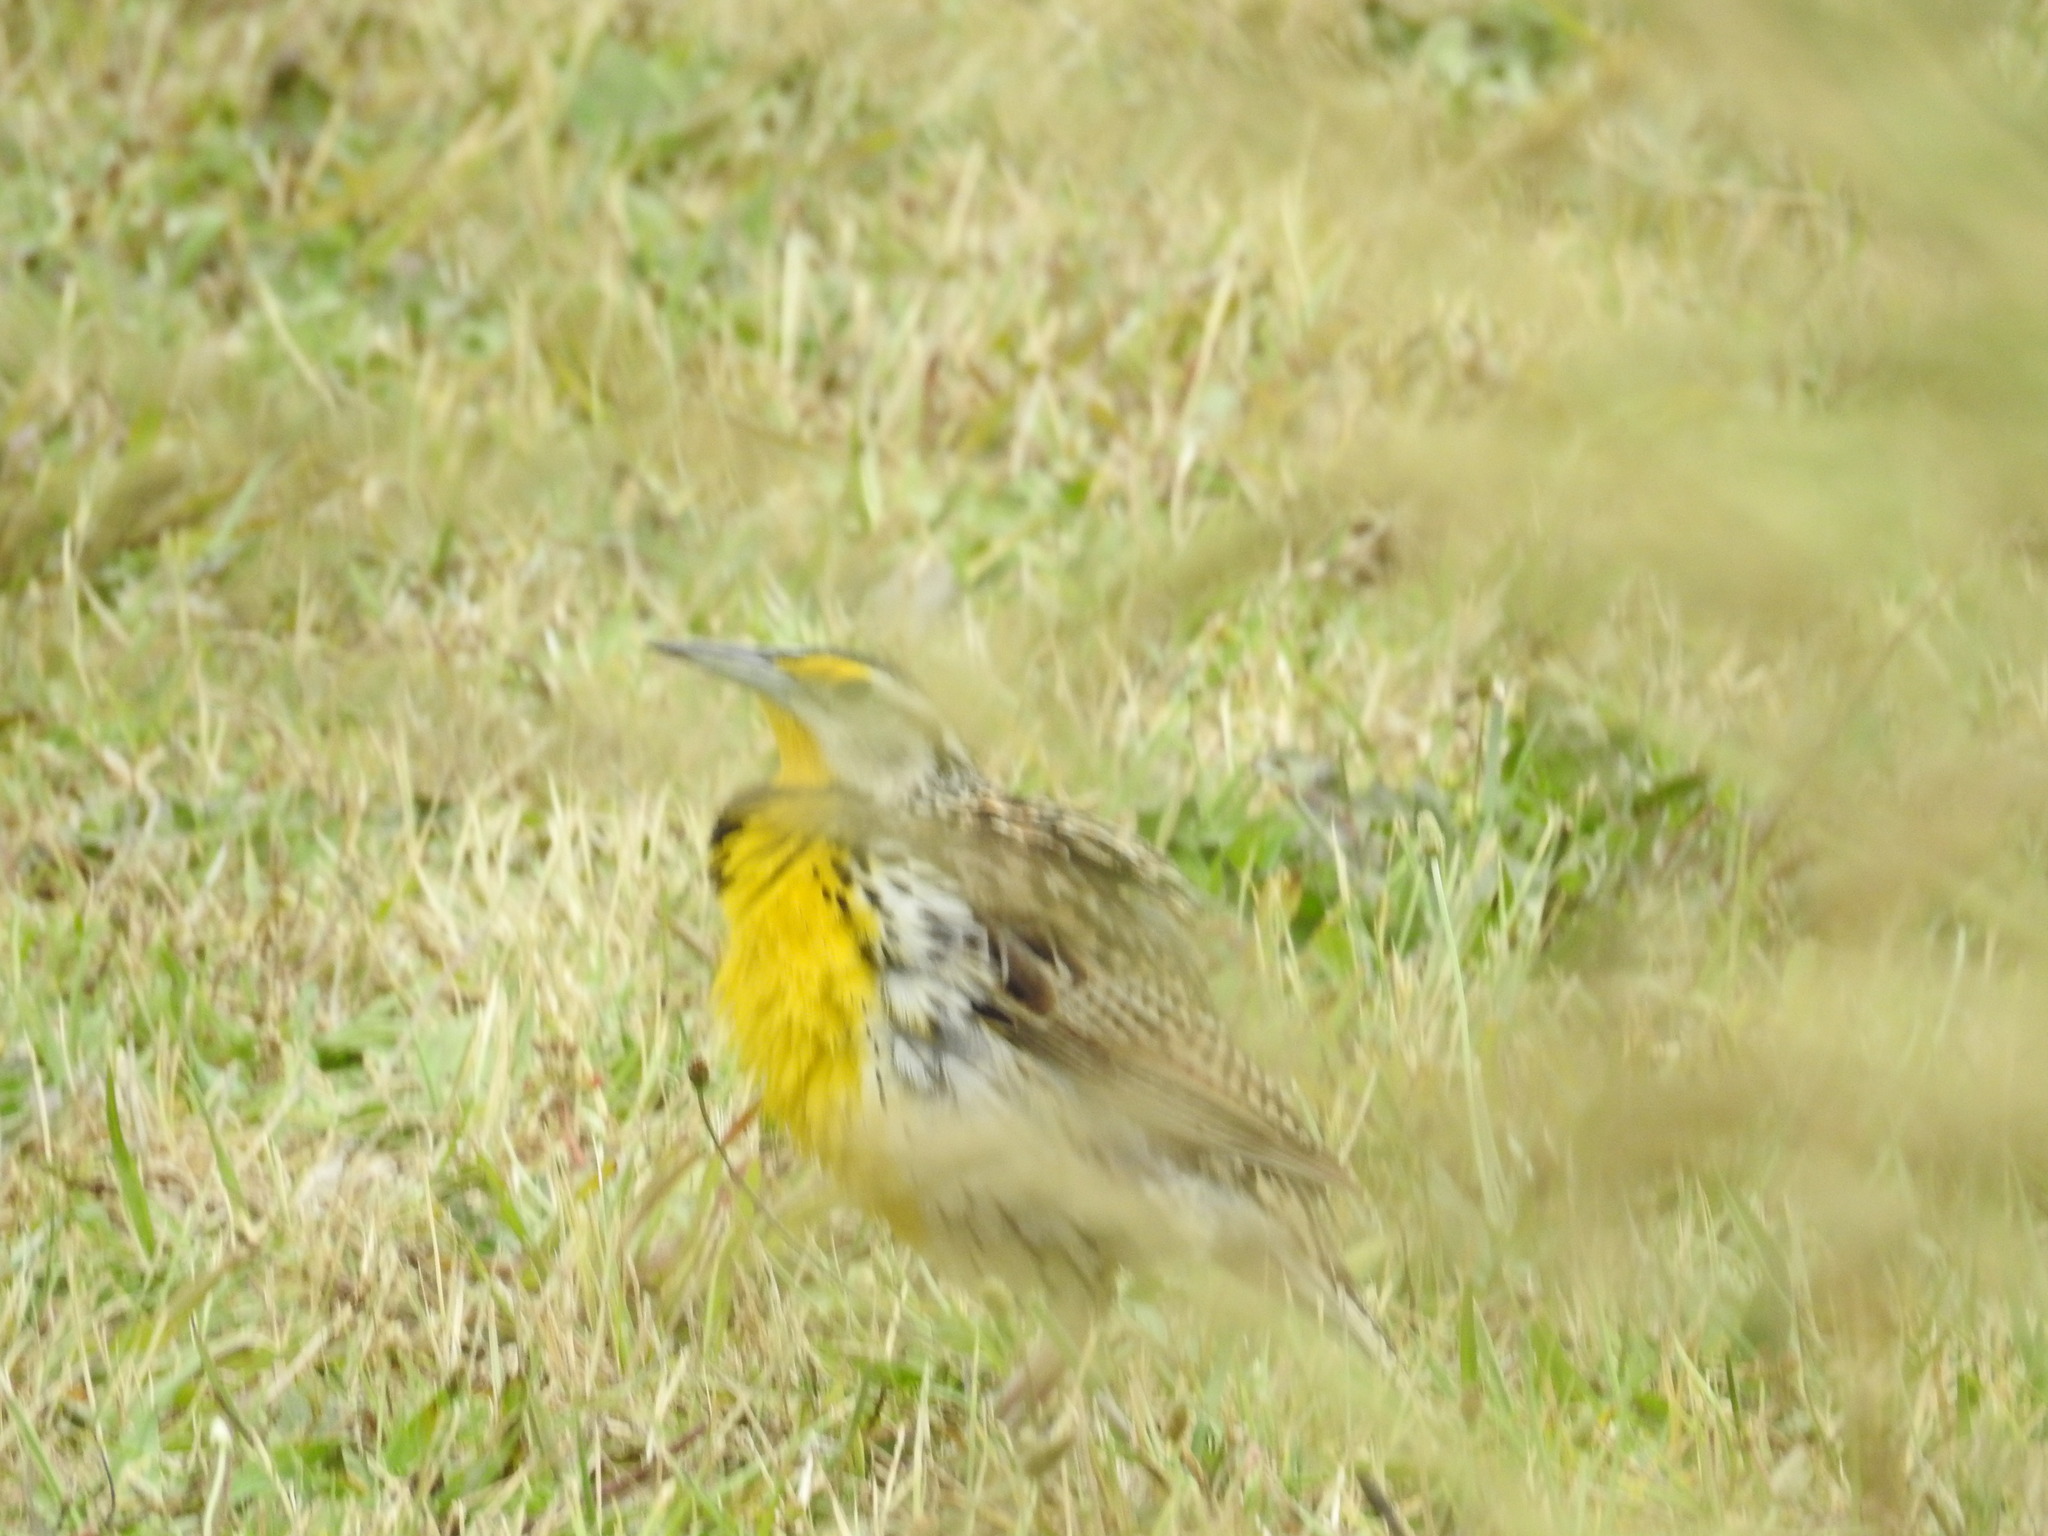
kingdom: Animalia
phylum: Chordata
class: Aves
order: Passeriformes
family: Icteridae
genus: Sturnella
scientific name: Sturnella magna
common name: Eastern meadowlark
